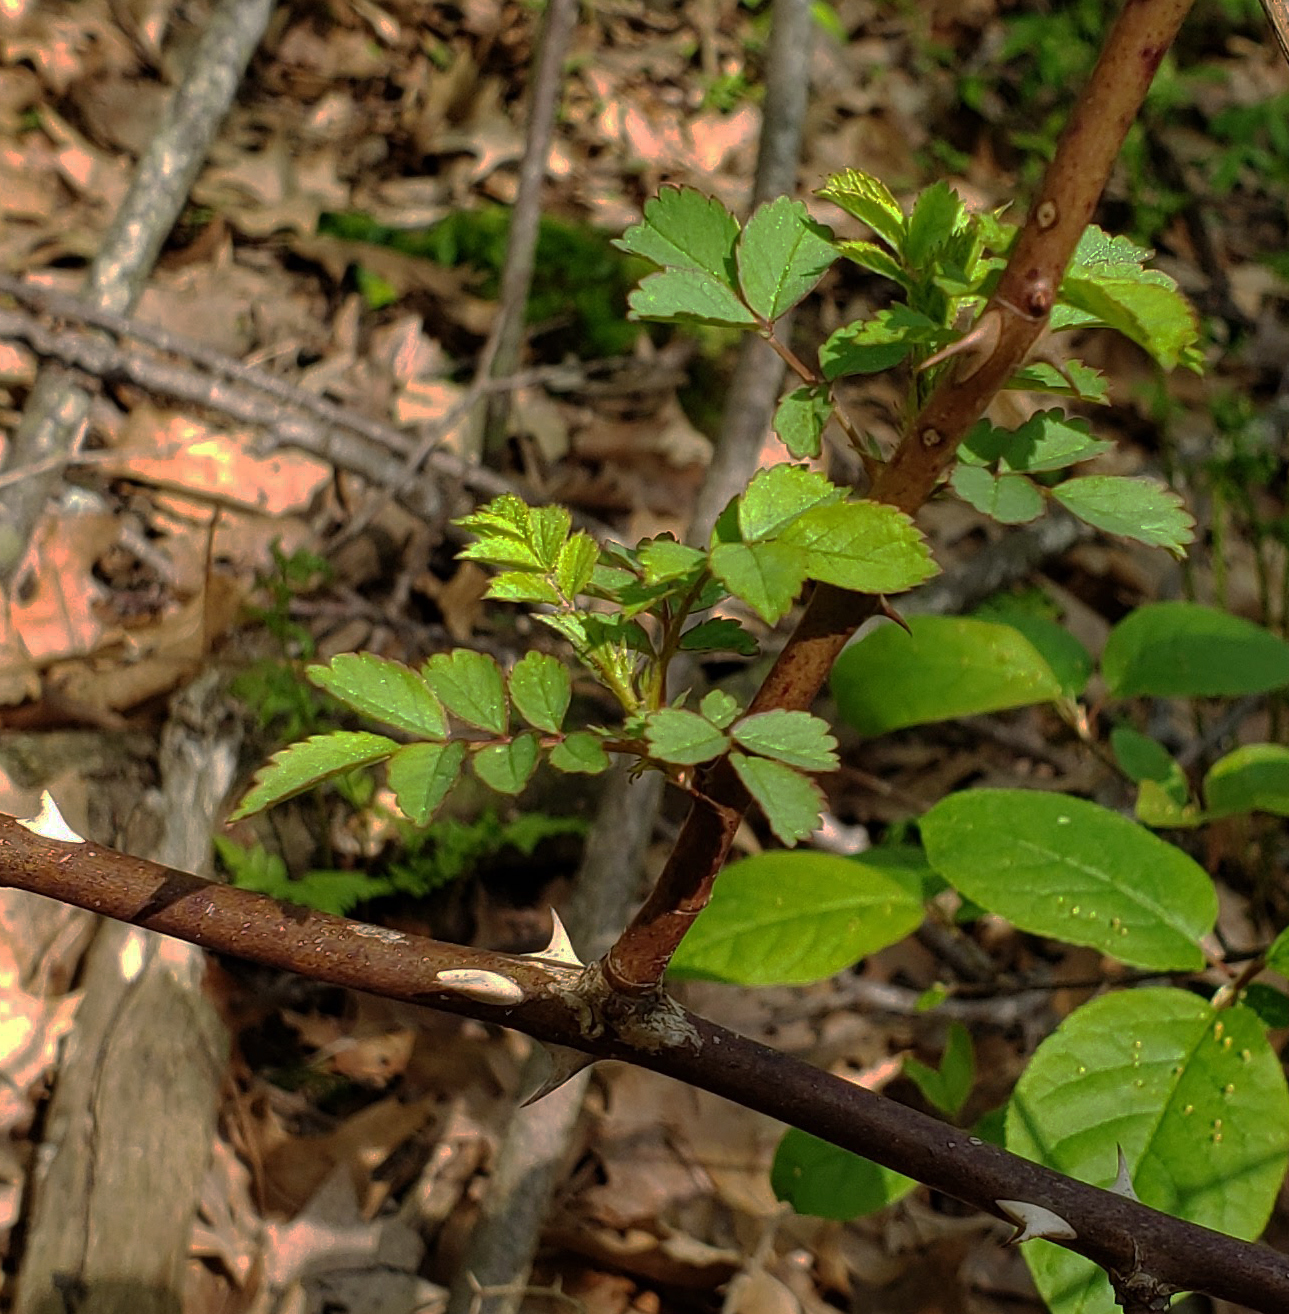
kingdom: Plantae
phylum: Tracheophyta
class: Magnoliopsida
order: Rosales
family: Rosaceae
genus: Rosa
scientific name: Rosa multiflora
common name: Multiflora rose
